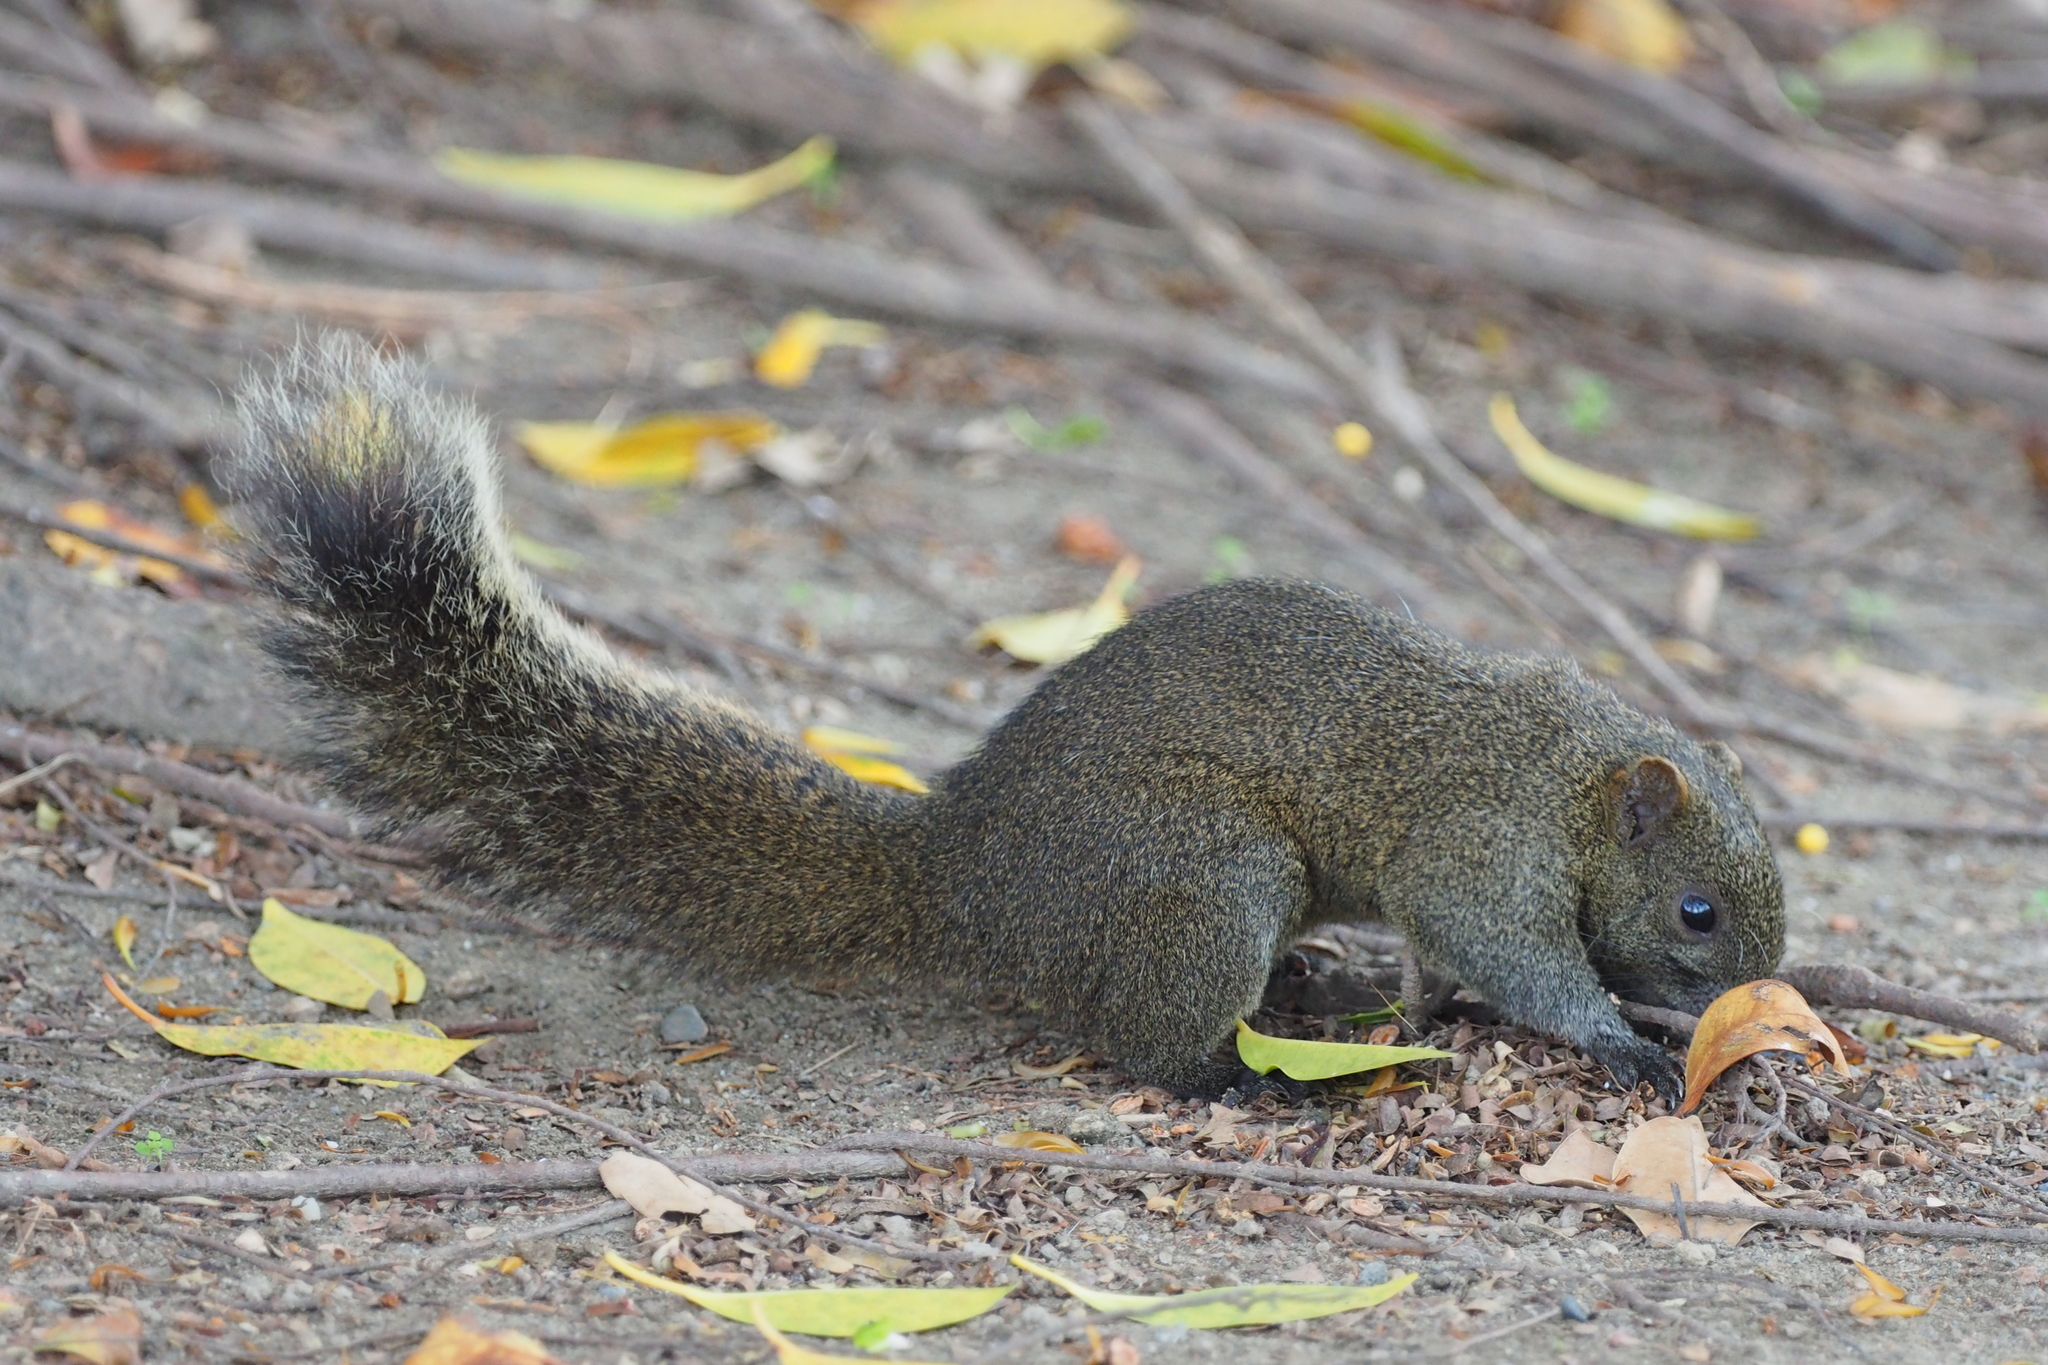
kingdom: Animalia
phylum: Chordata
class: Mammalia
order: Rodentia
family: Sciuridae
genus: Callosciurus
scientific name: Callosciurus erythraeus
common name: Pallas's squirrel
